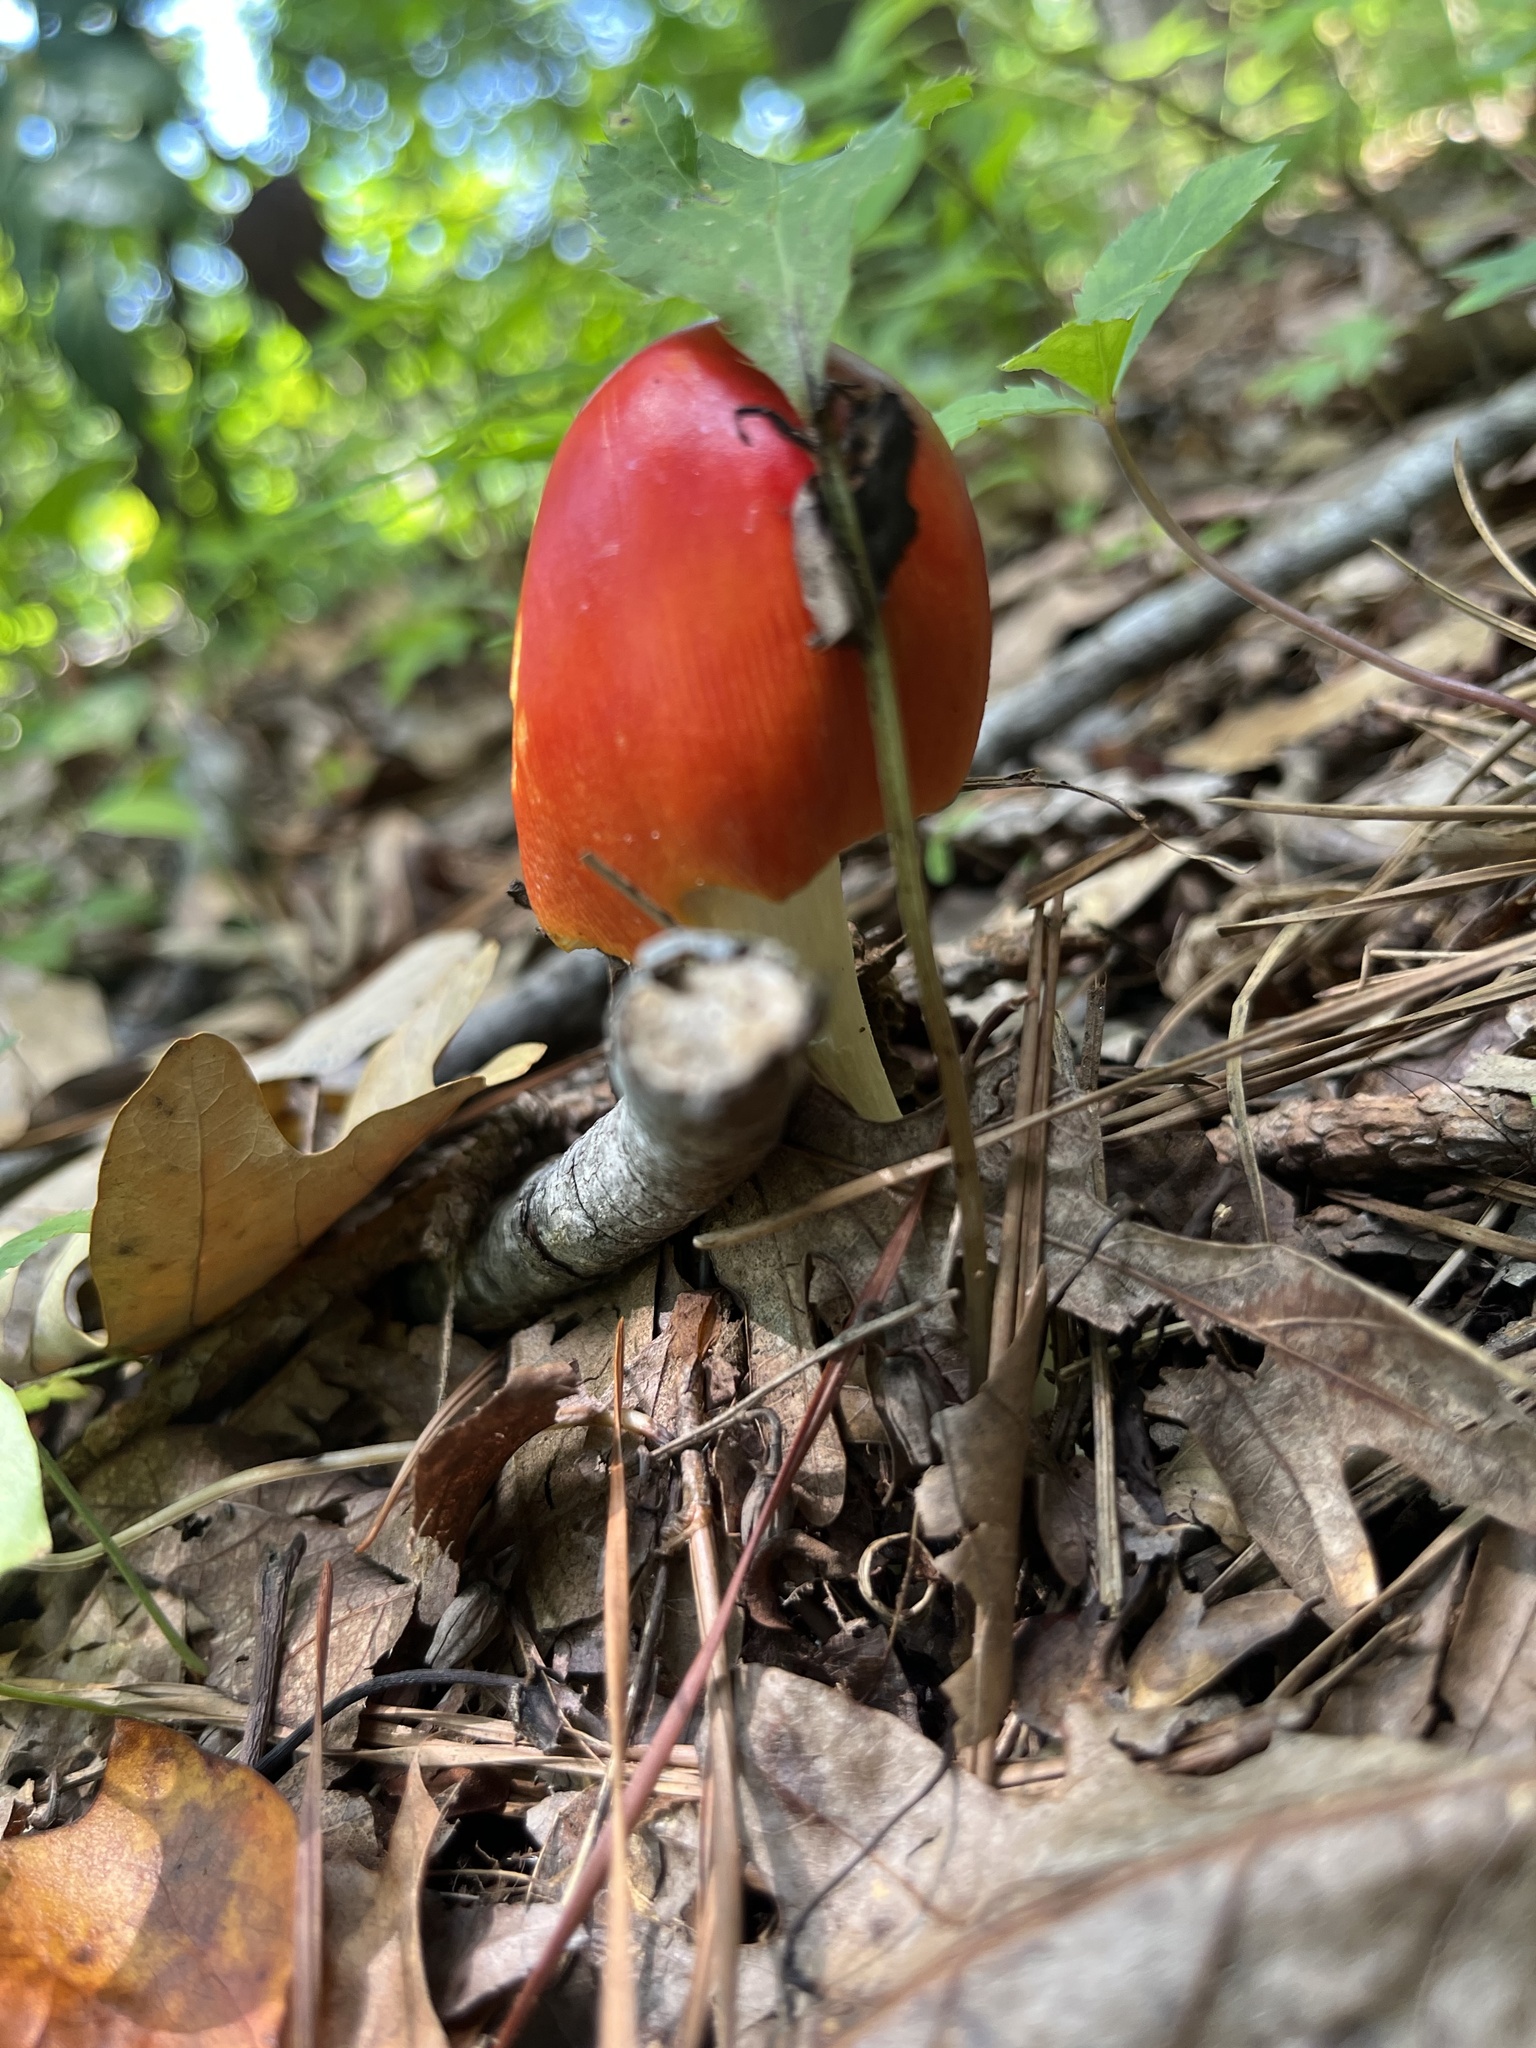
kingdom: Fungi
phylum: Basidiomycota
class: Agaricomycetes
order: Agaricales
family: Amanitaceae
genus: Amanita
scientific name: Amanita jacksonii
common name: Jackson's slender caesar
